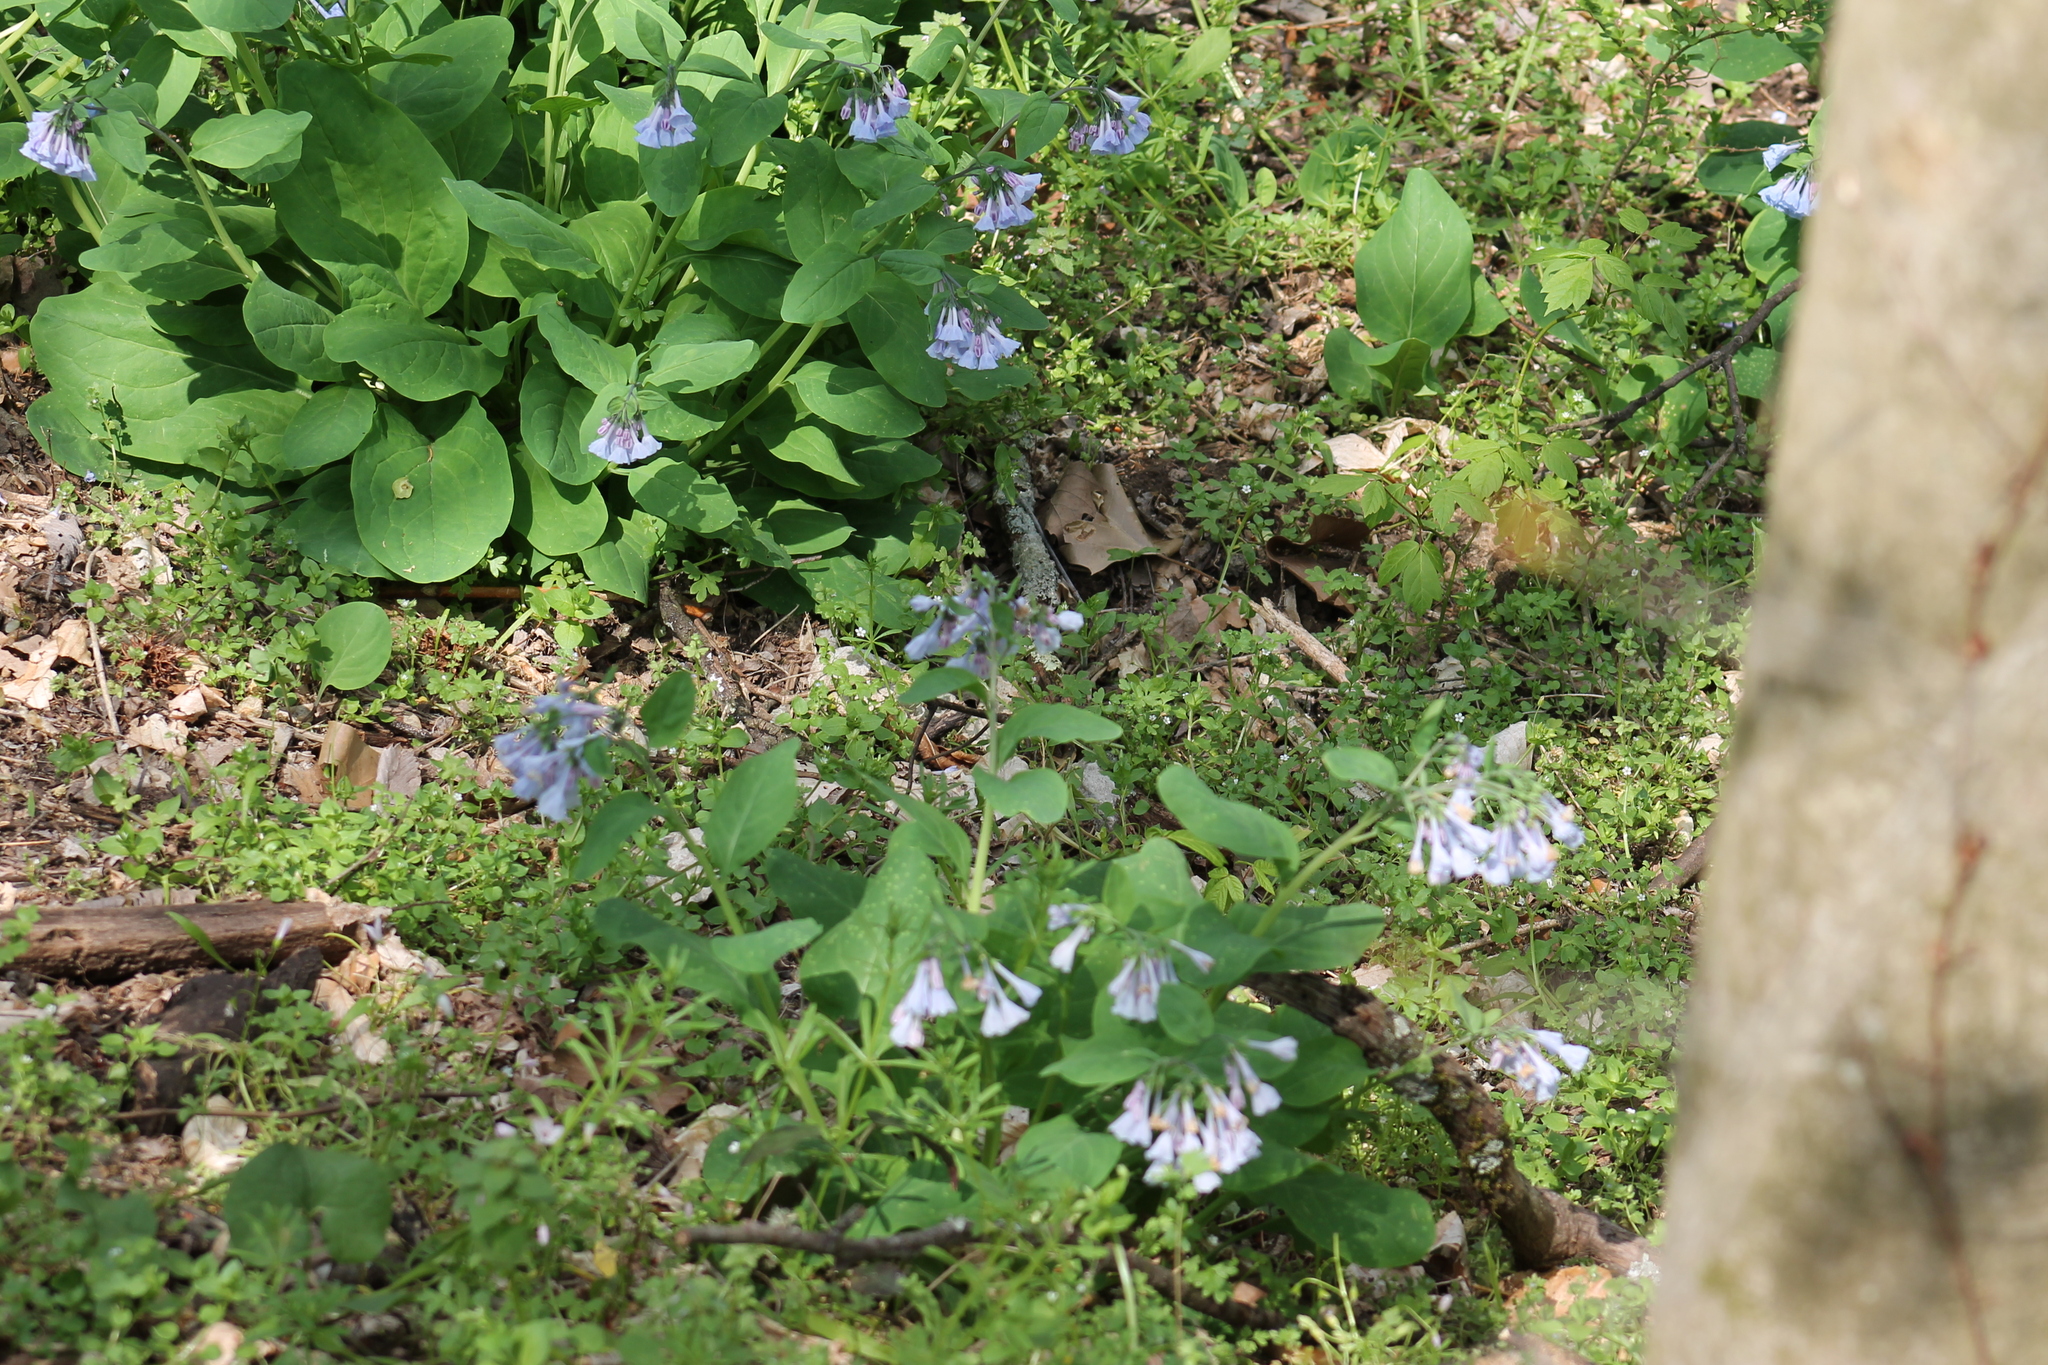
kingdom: Plantae
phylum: Tracheophyta
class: Magnoliopsida
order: Boraginales
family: Boraginaceae
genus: Mertensia
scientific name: Mertensia virginica
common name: Virginia bluebells
